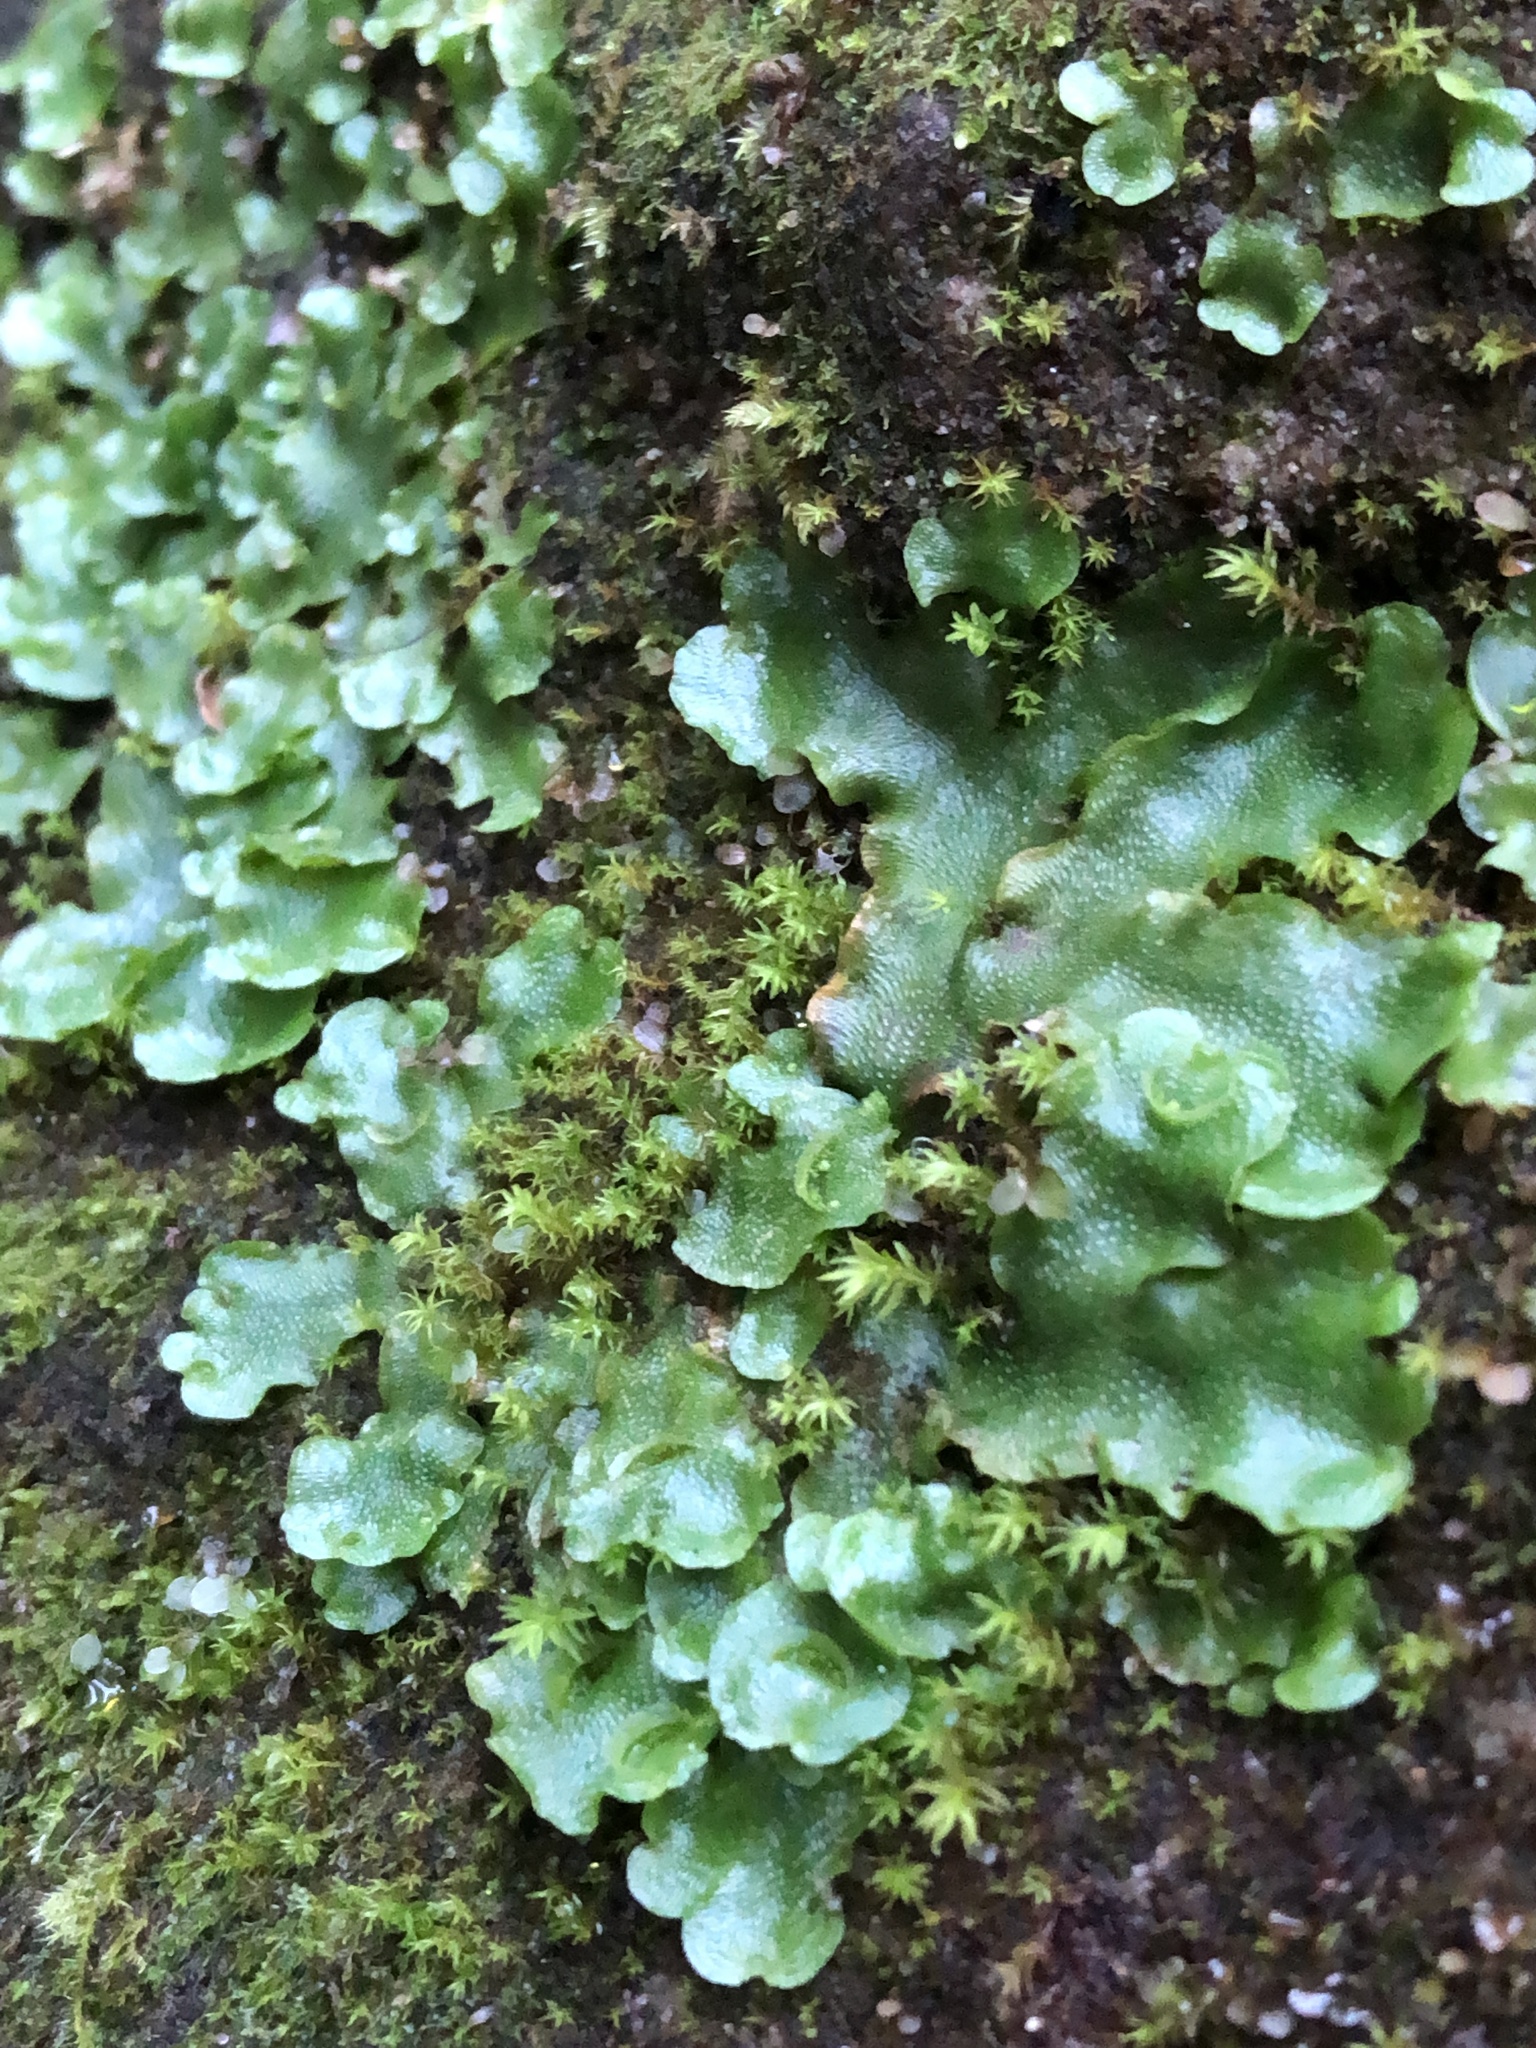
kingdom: Plantae
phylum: Marchantiophyta
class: Marchantiopsida
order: Lunulariales
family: Lunulariaceae
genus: Lunularia
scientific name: Lunularia cruciata
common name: Crescent-cup liverwort
